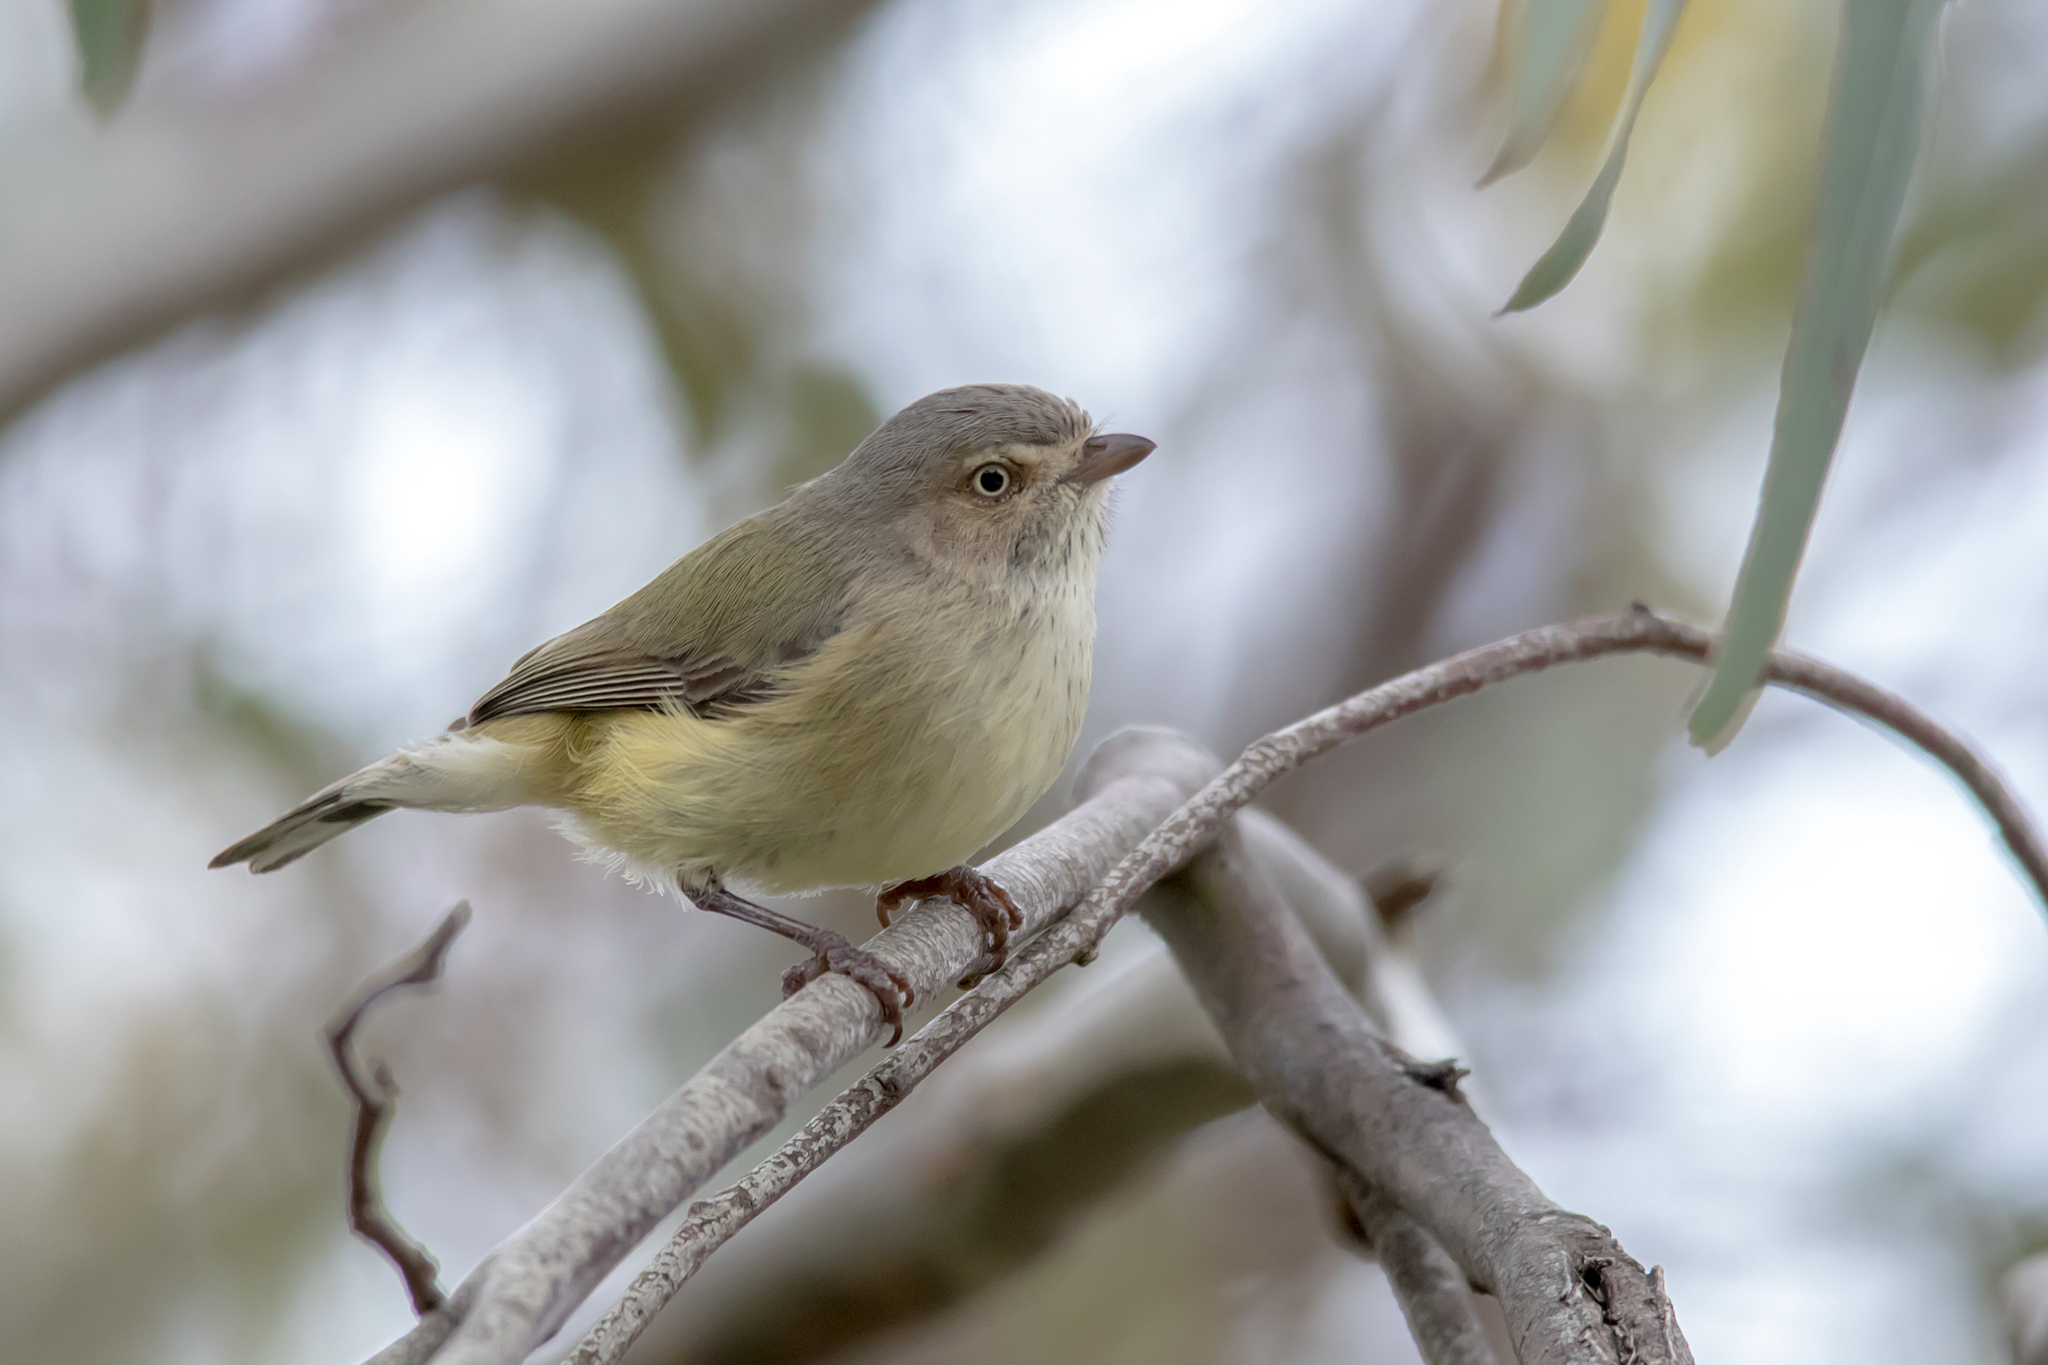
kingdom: Animalia
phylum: Chordata
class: Aves
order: Passeriformes
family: Acanthizidae
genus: Smicrornis
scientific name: Smicrornis brevirostris
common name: Weebill
